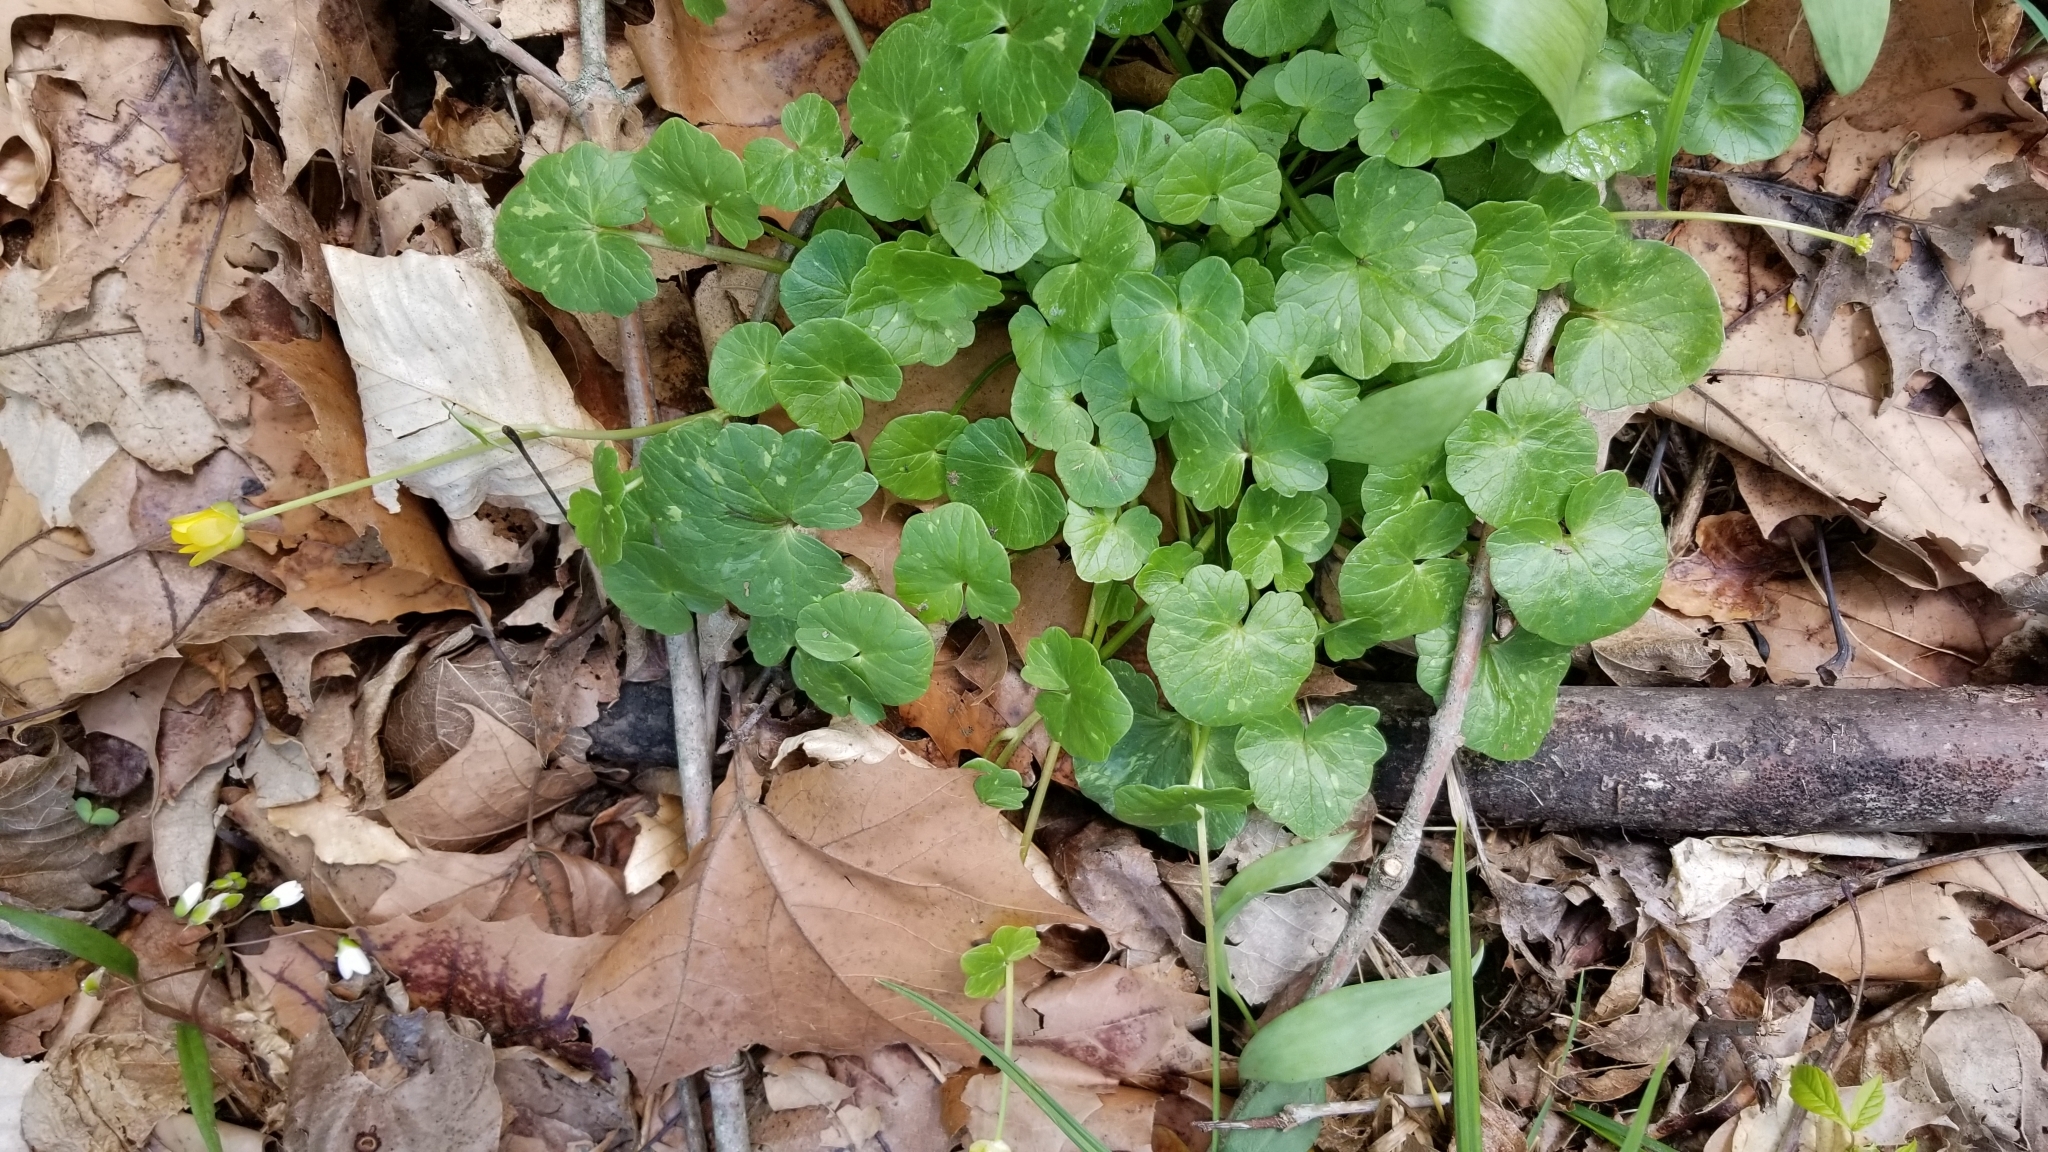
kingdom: Plantae
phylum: Tracheophyta
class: Magnoliopsida
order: Ranunculales
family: Ranunculaceae
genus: Ficaria
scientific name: Ficaria verna
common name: Lesser celandine
